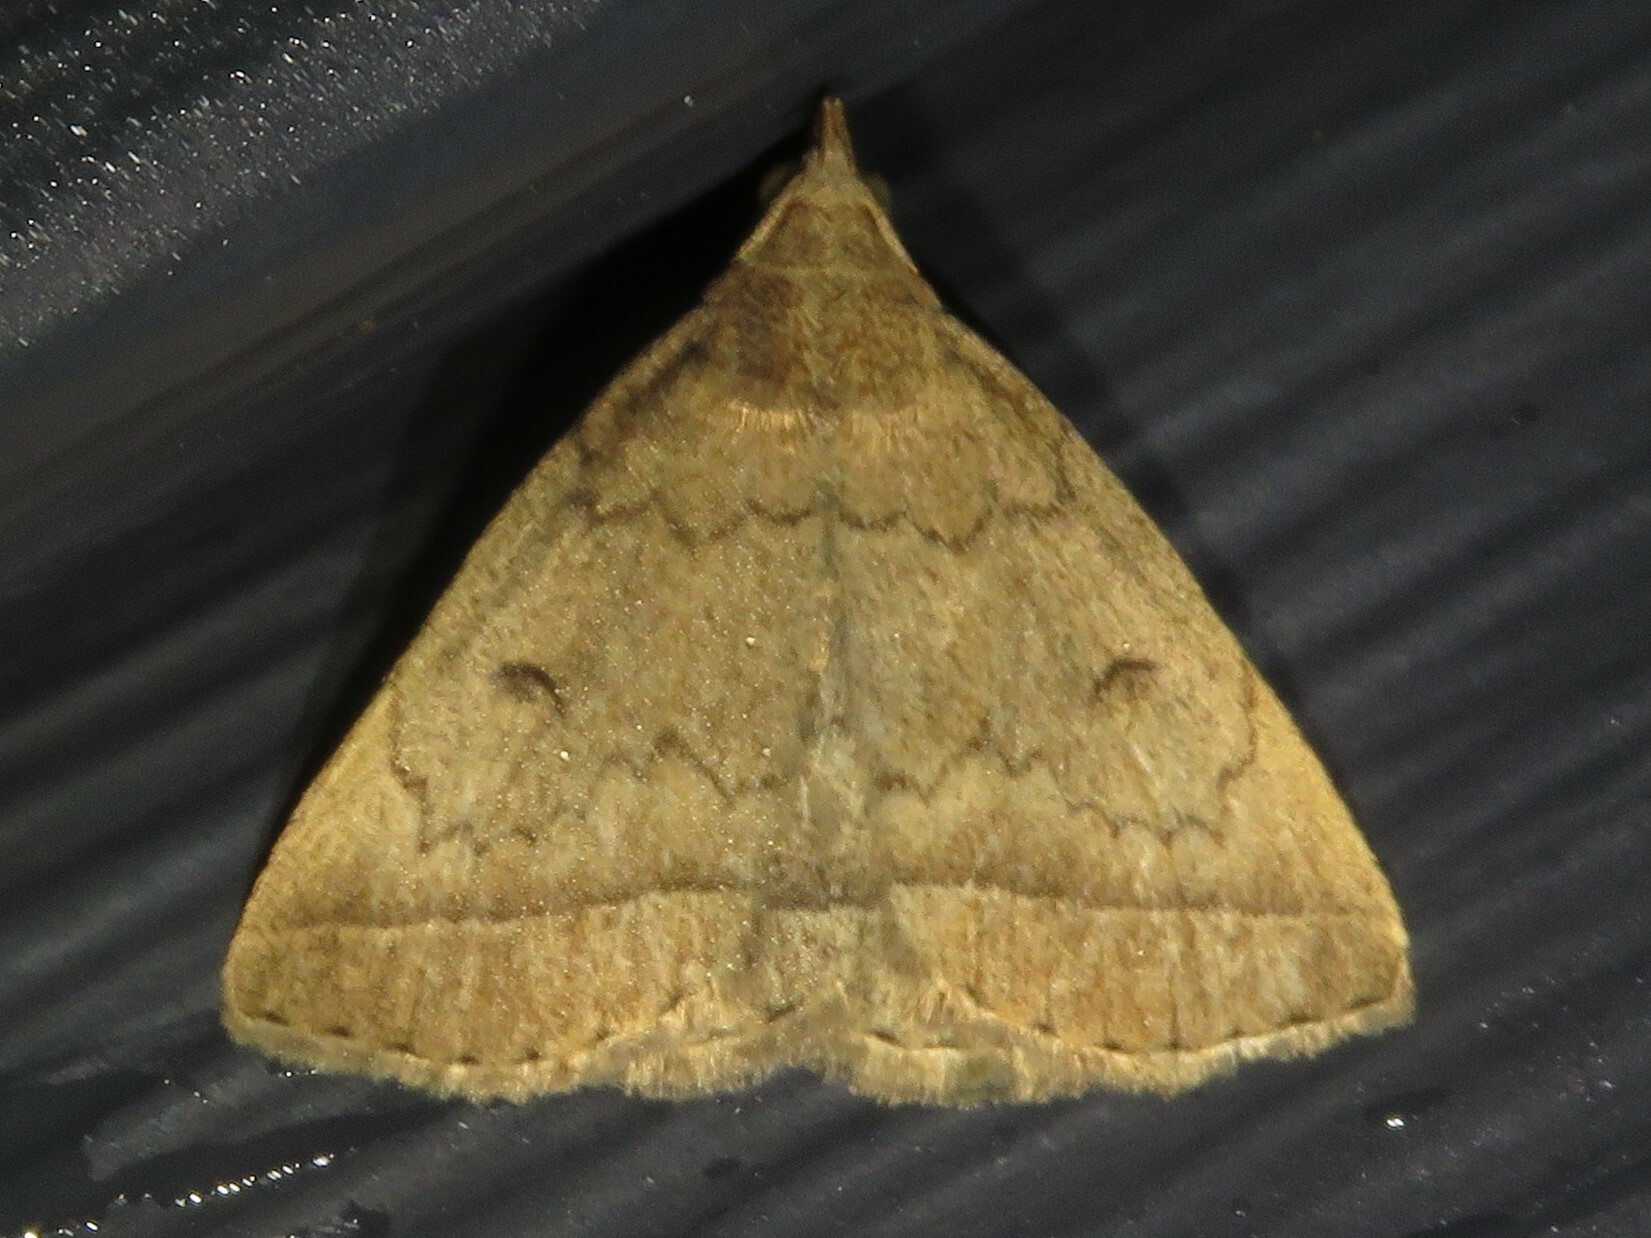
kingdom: Animalia
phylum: Arthropoda
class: Insecta
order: Lepidoptera
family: Erebidae
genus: Zanclognatha
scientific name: Zanclognatha jacchusalis
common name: Yellowish zanclognatha
